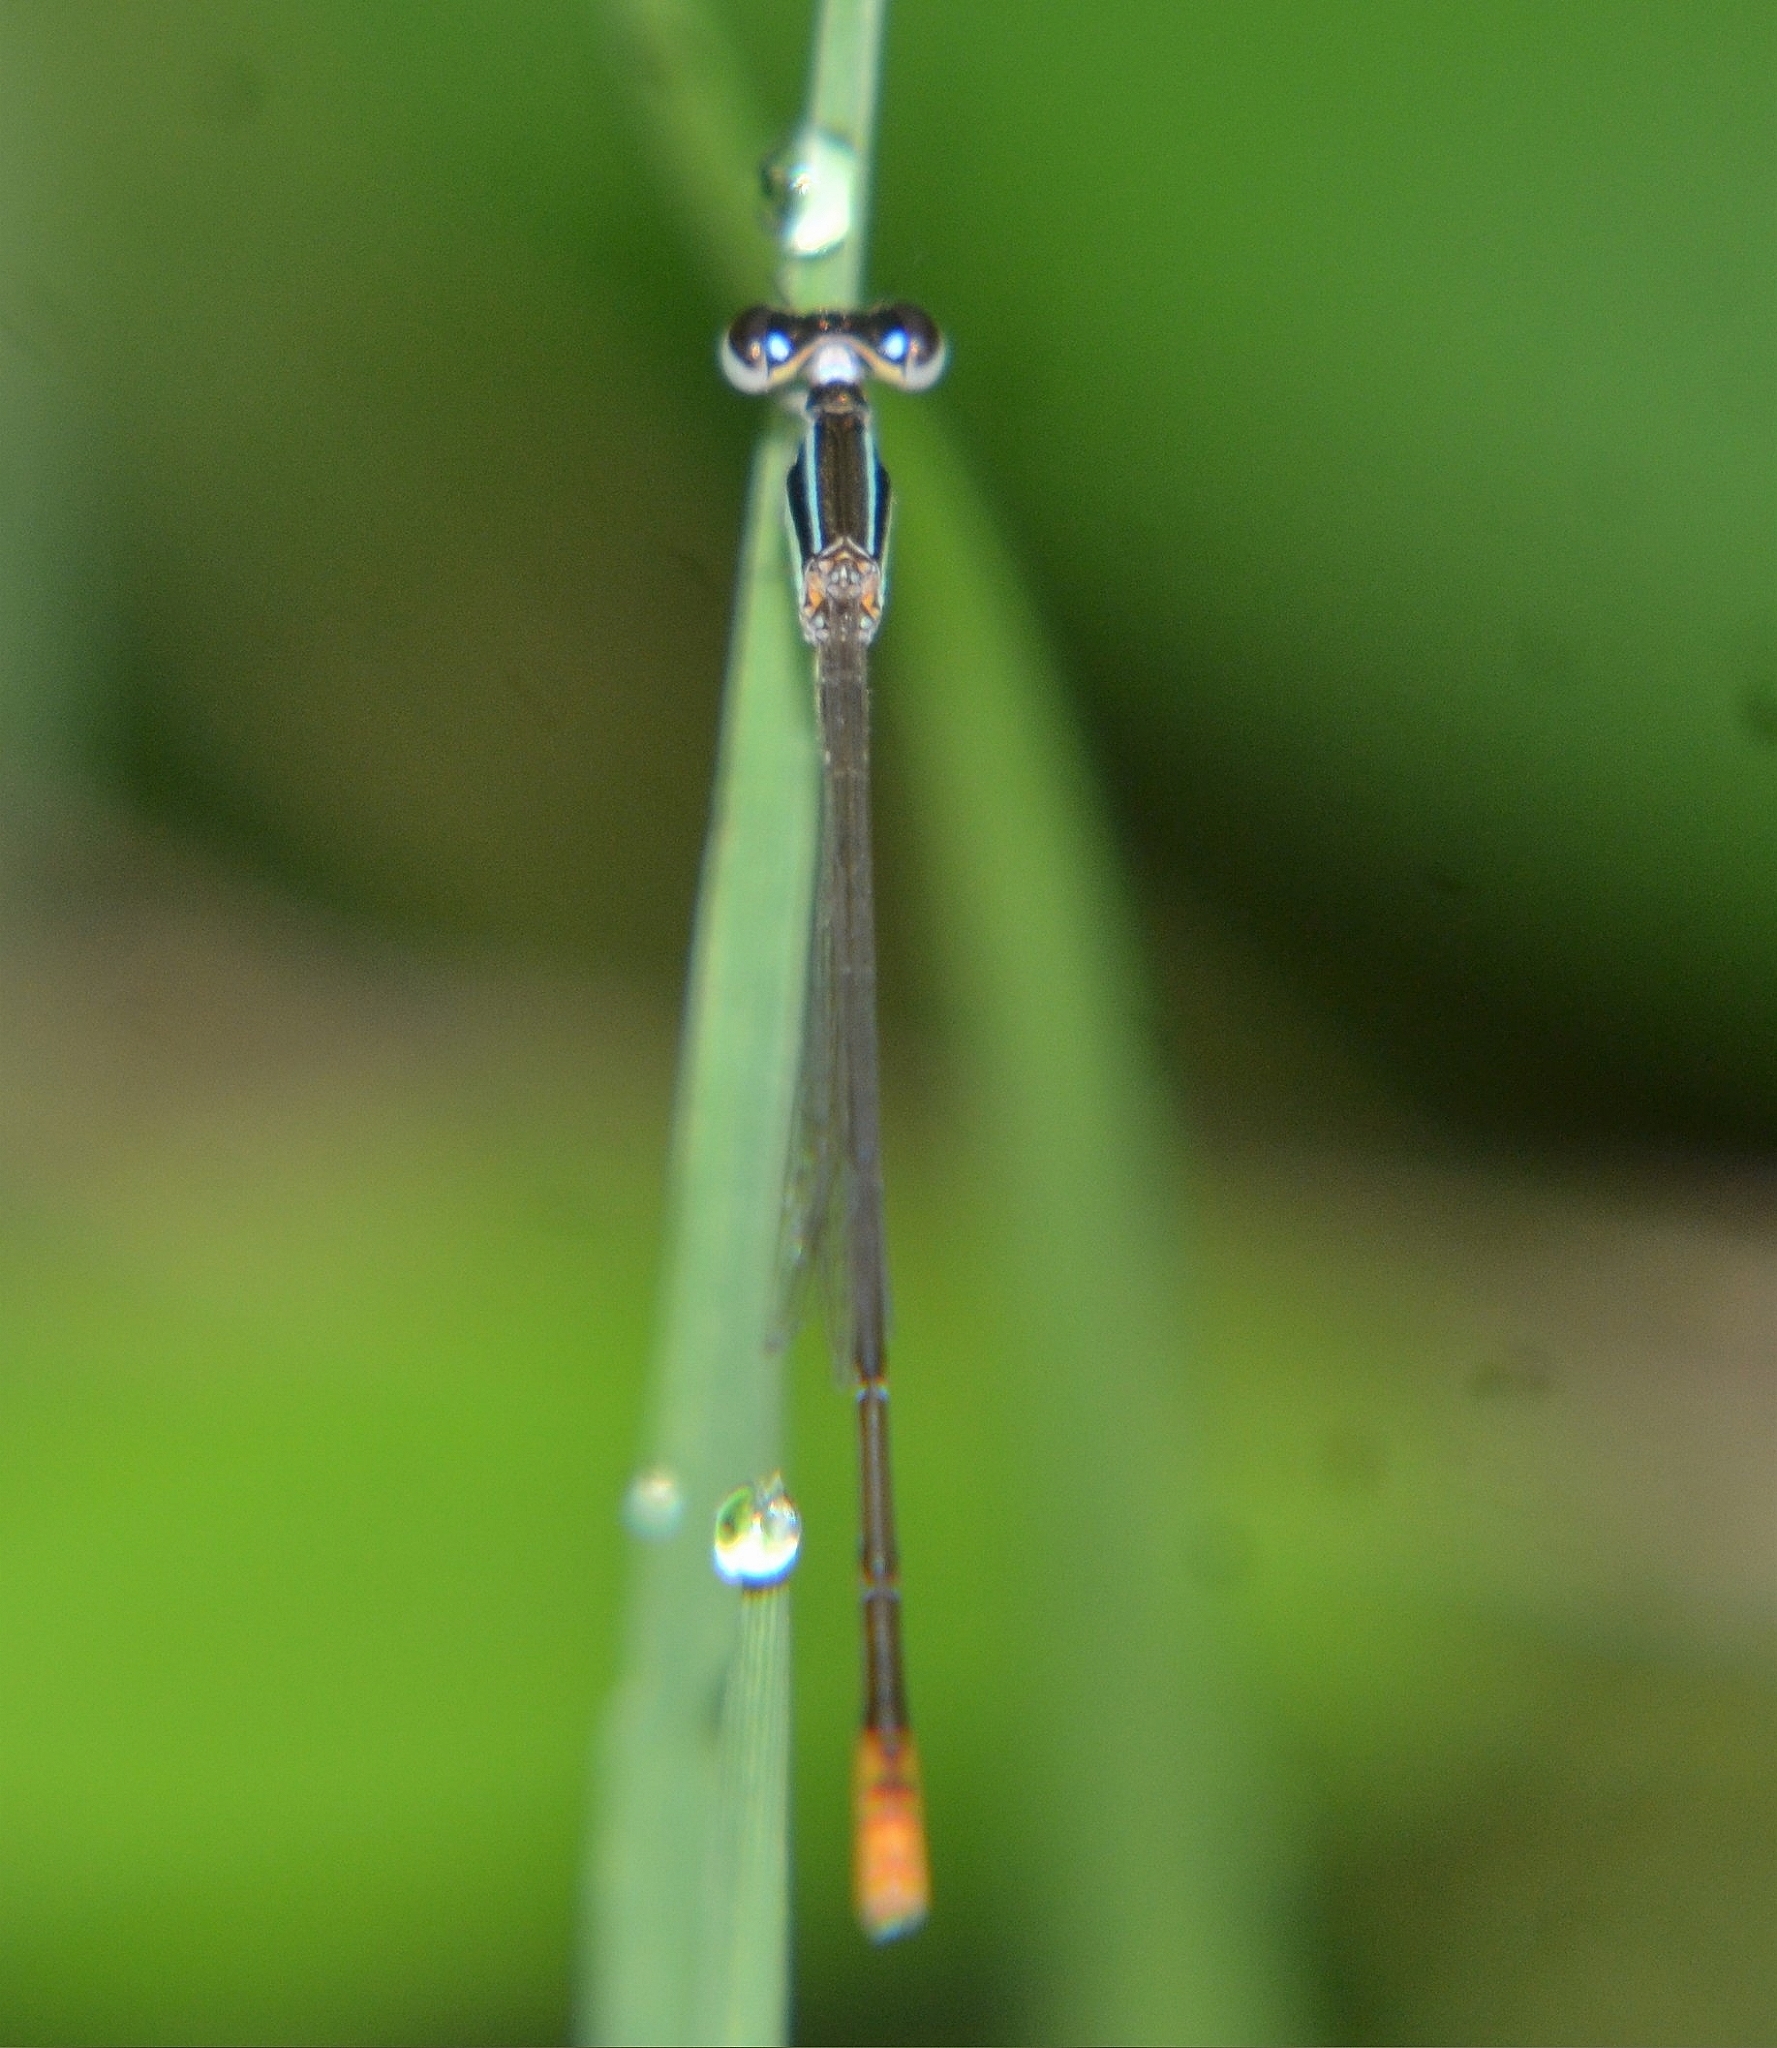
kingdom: Animalia
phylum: Arthropoda
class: Insecta
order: Odonata
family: Coenagrionidae
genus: Agriocnemis
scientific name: Agriocnemis pygmaea
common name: Pygmy wisp
